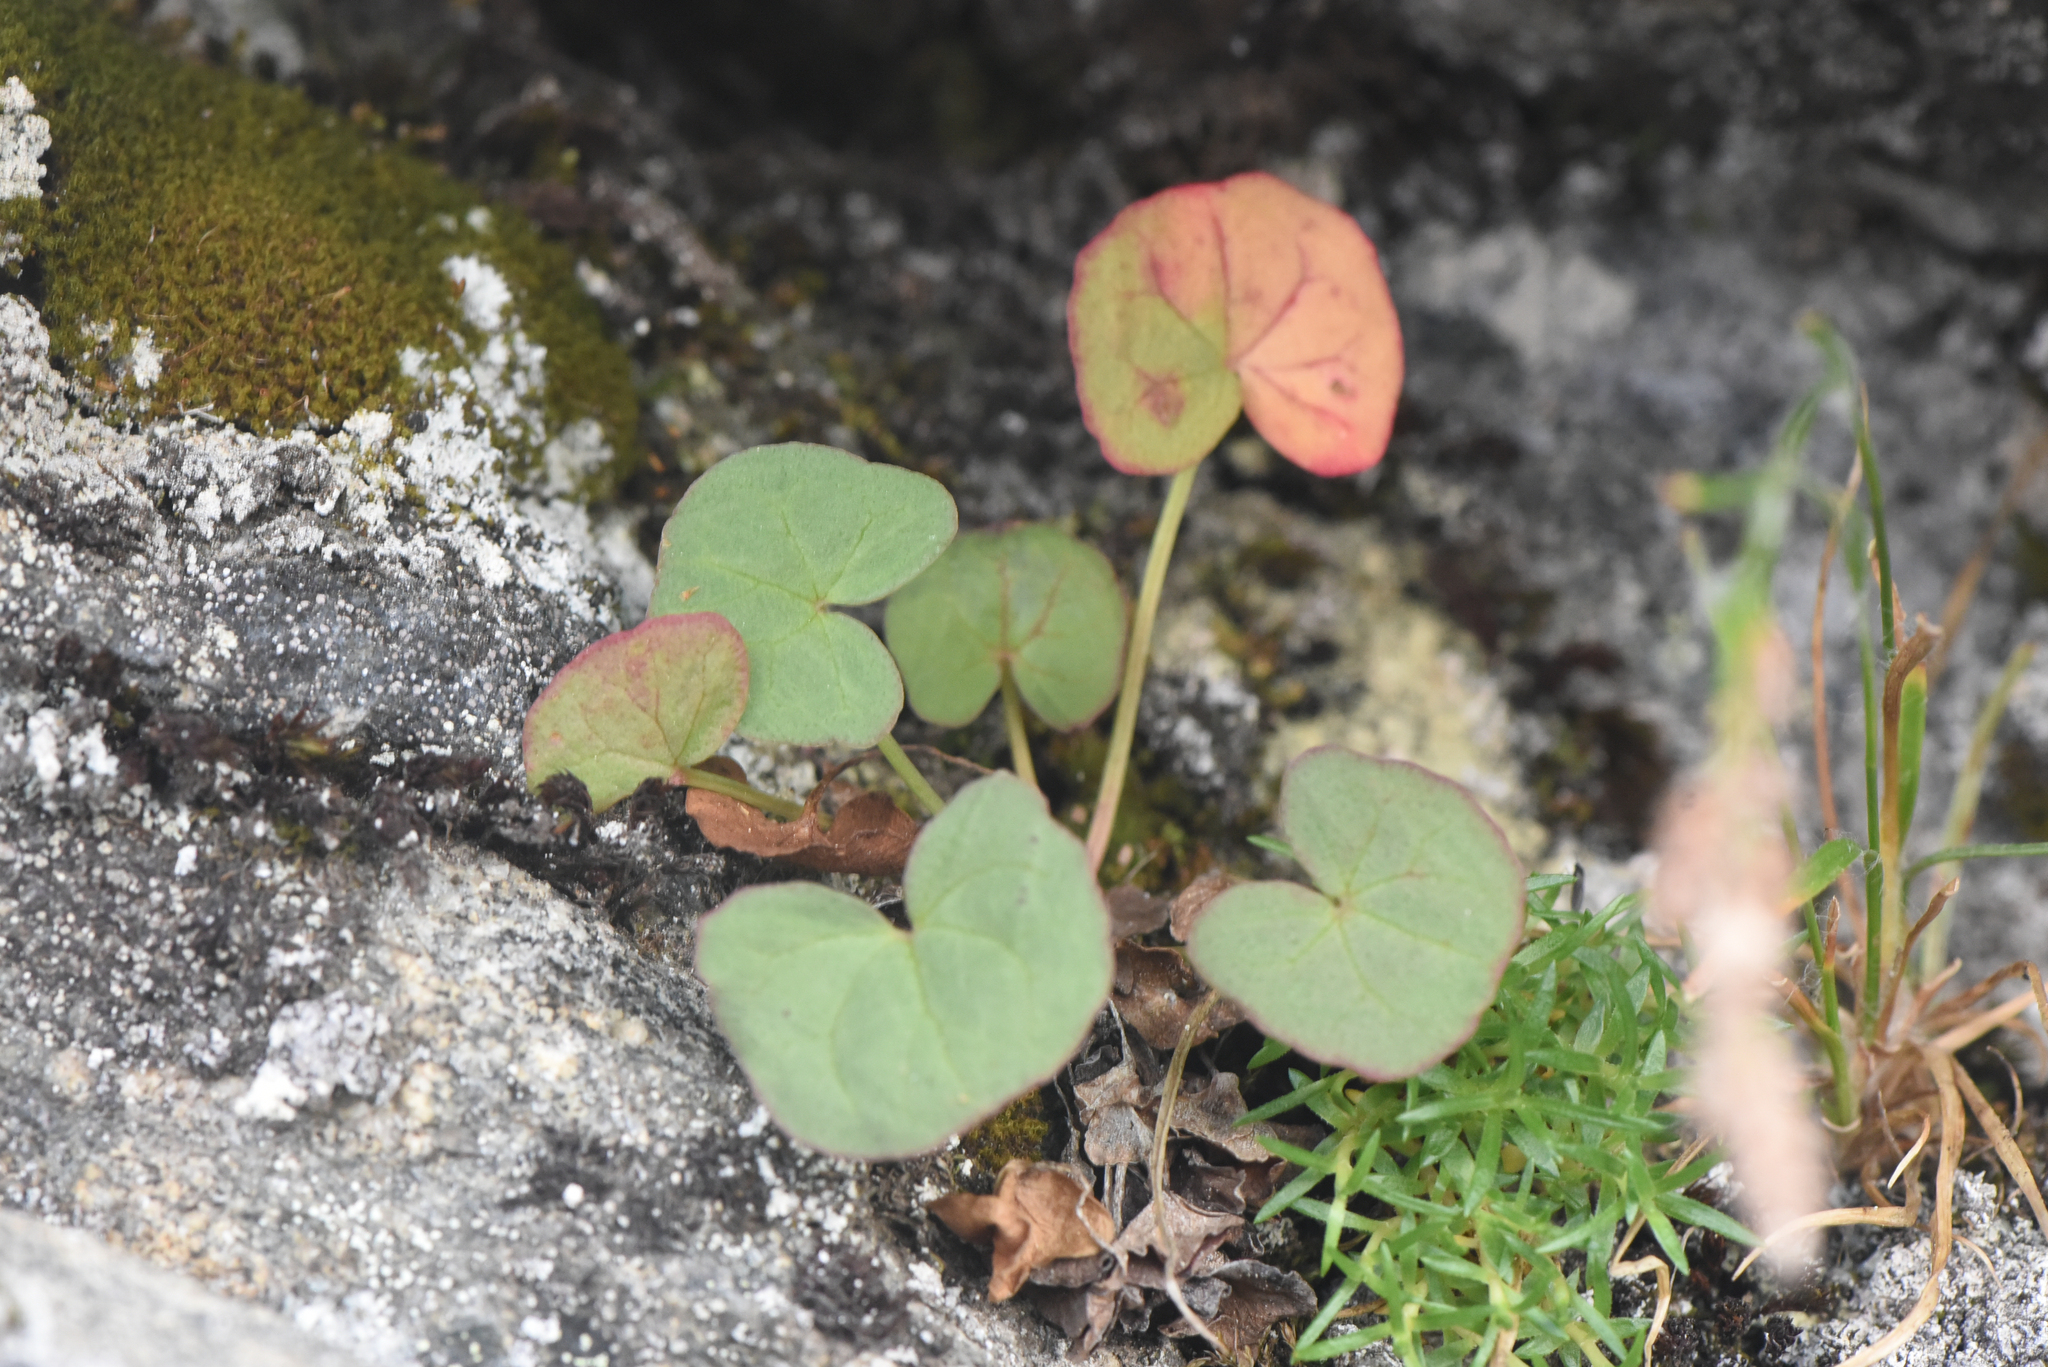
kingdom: Plantae
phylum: Tracheophyta
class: Magnoliopsida
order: Caryophyllales
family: Polygonaceae
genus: Oxyria
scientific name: Oxyria digyna
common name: Alpine mountain-sorrel
